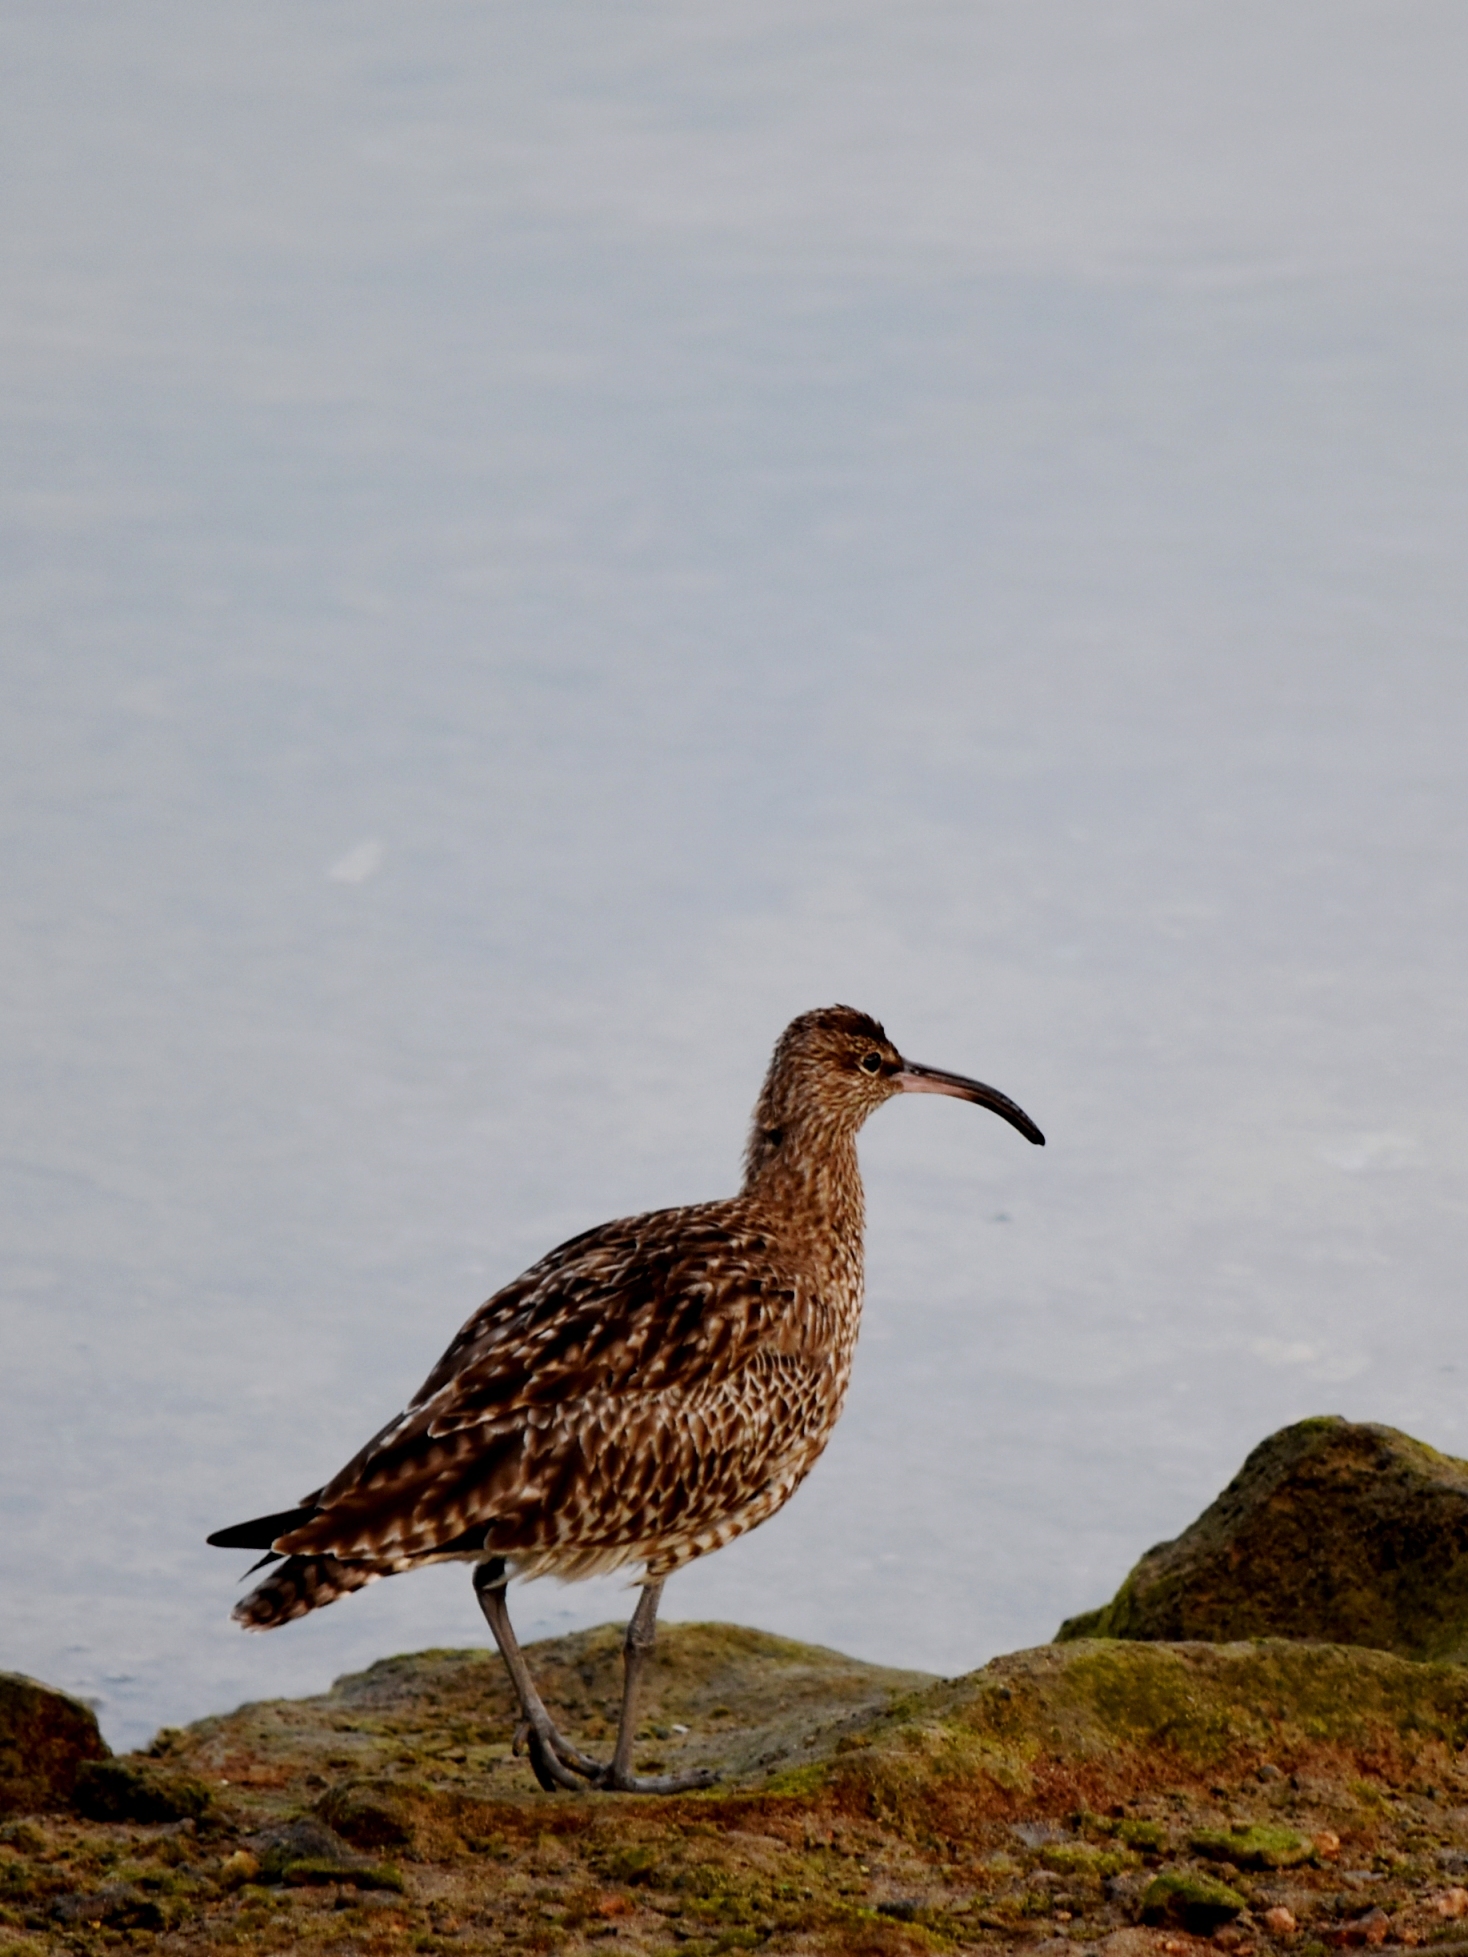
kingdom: Animalia
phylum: Chordata
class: Aves
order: Charadriiformes
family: Scolopacidae
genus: Numenius
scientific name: Numenius phaeopus
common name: Whimbrel
